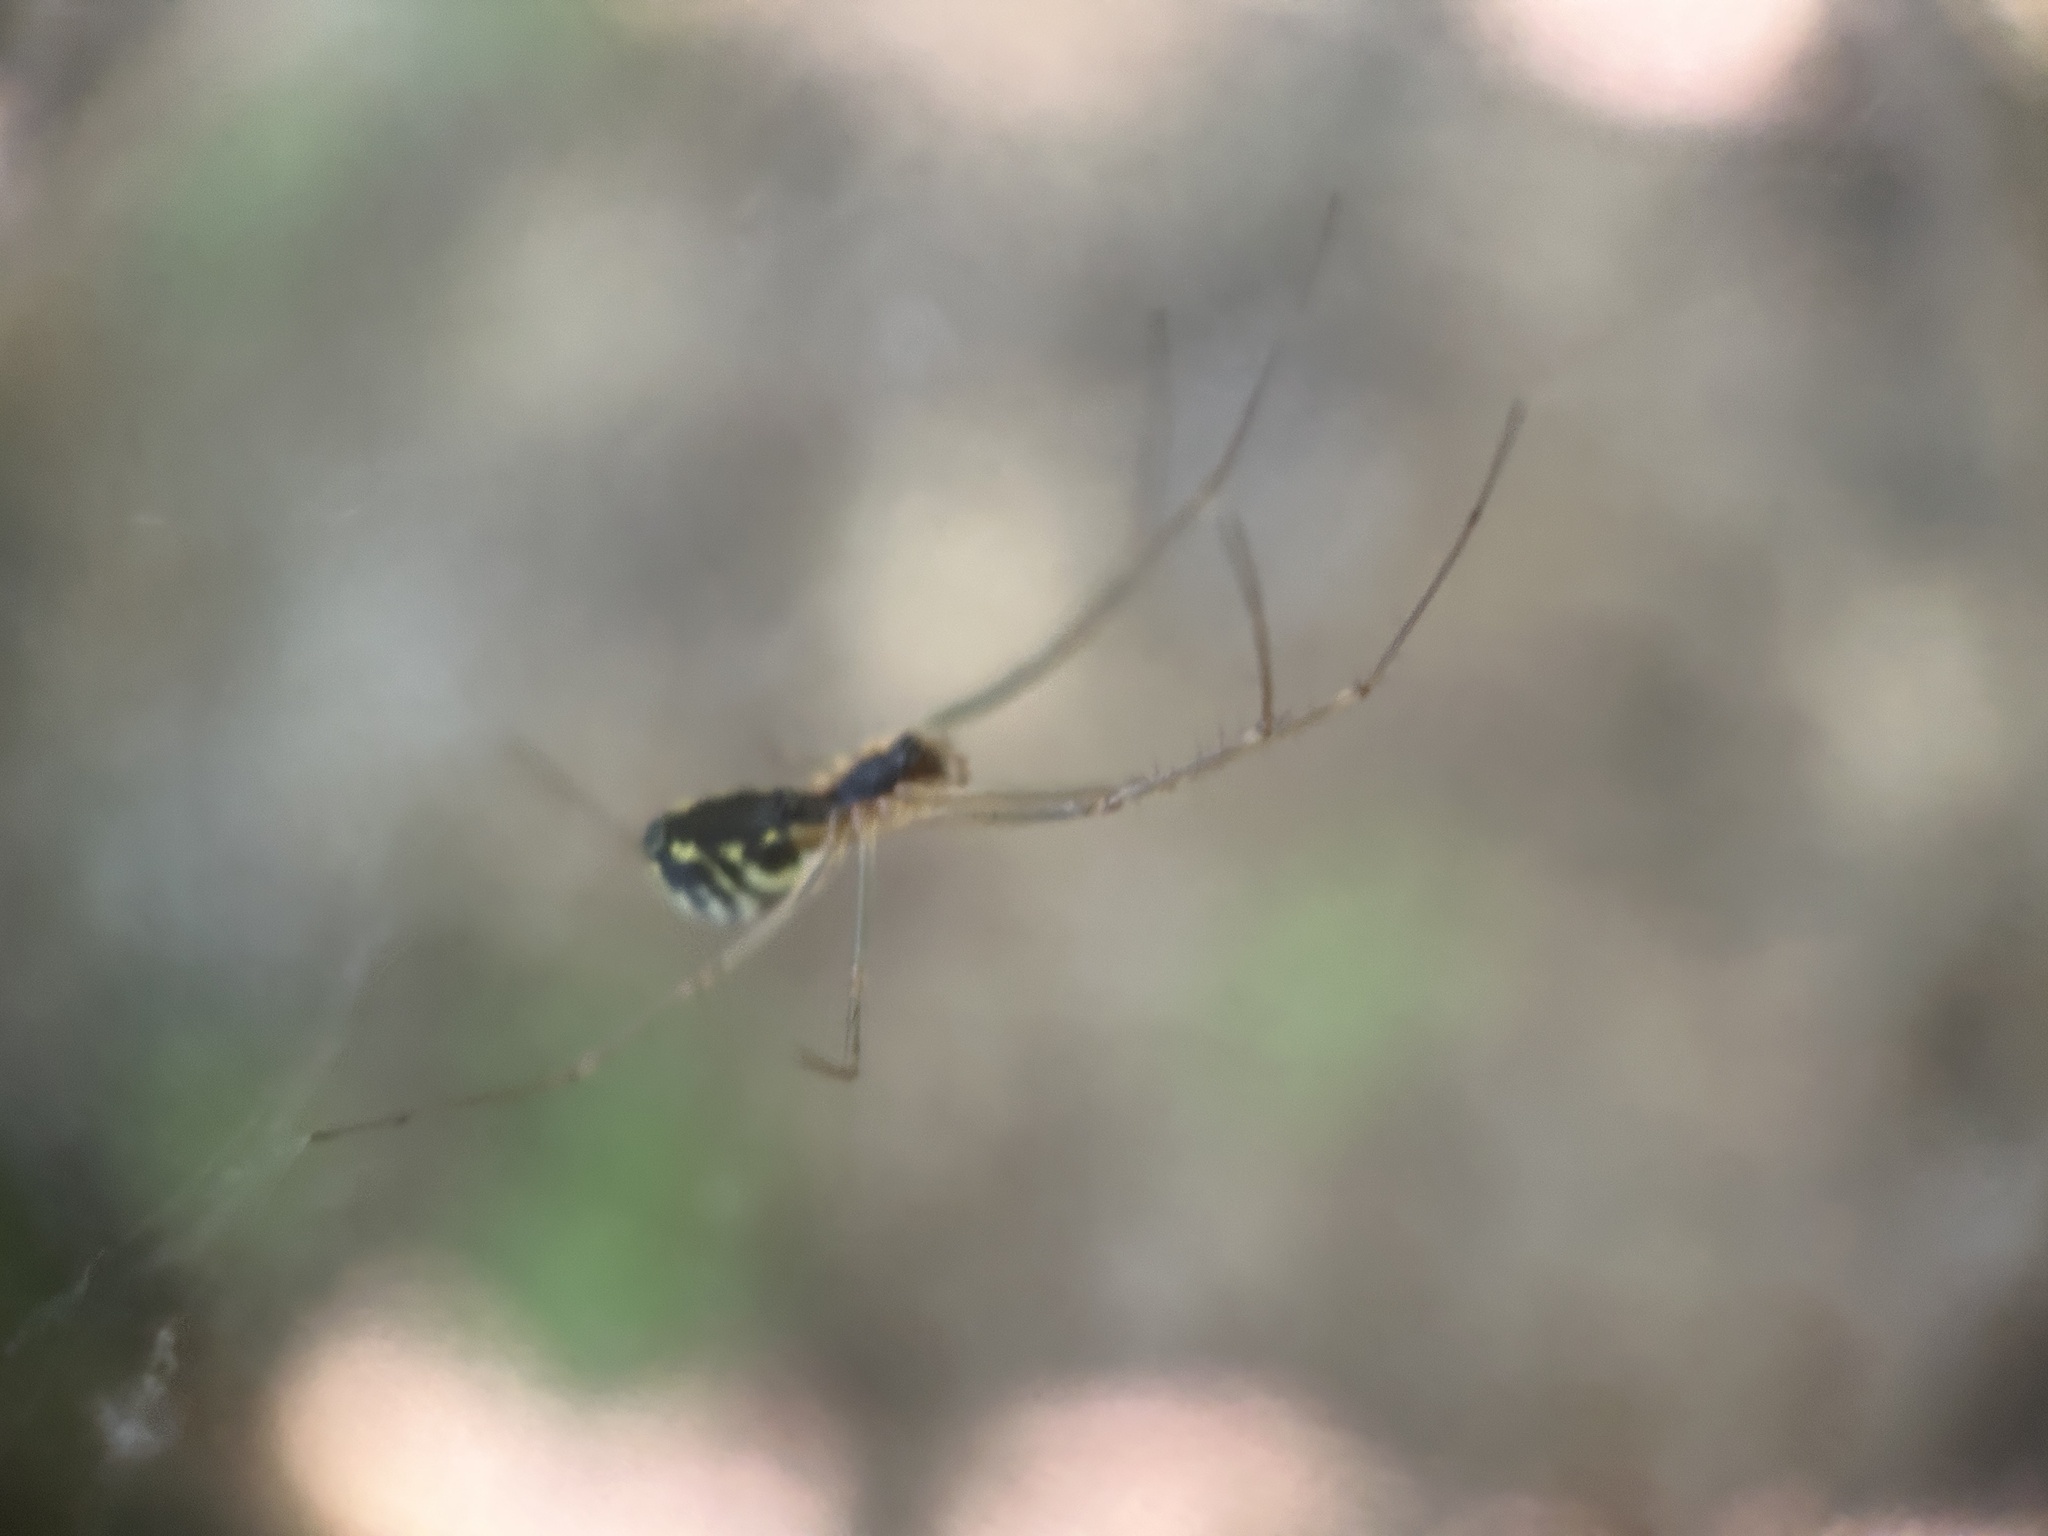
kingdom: Animalia
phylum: Arthropoda
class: Arachnida
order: Araneae
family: Linyphiidae
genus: Neriene
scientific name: Neriene radiata
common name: Filmy dome spider
